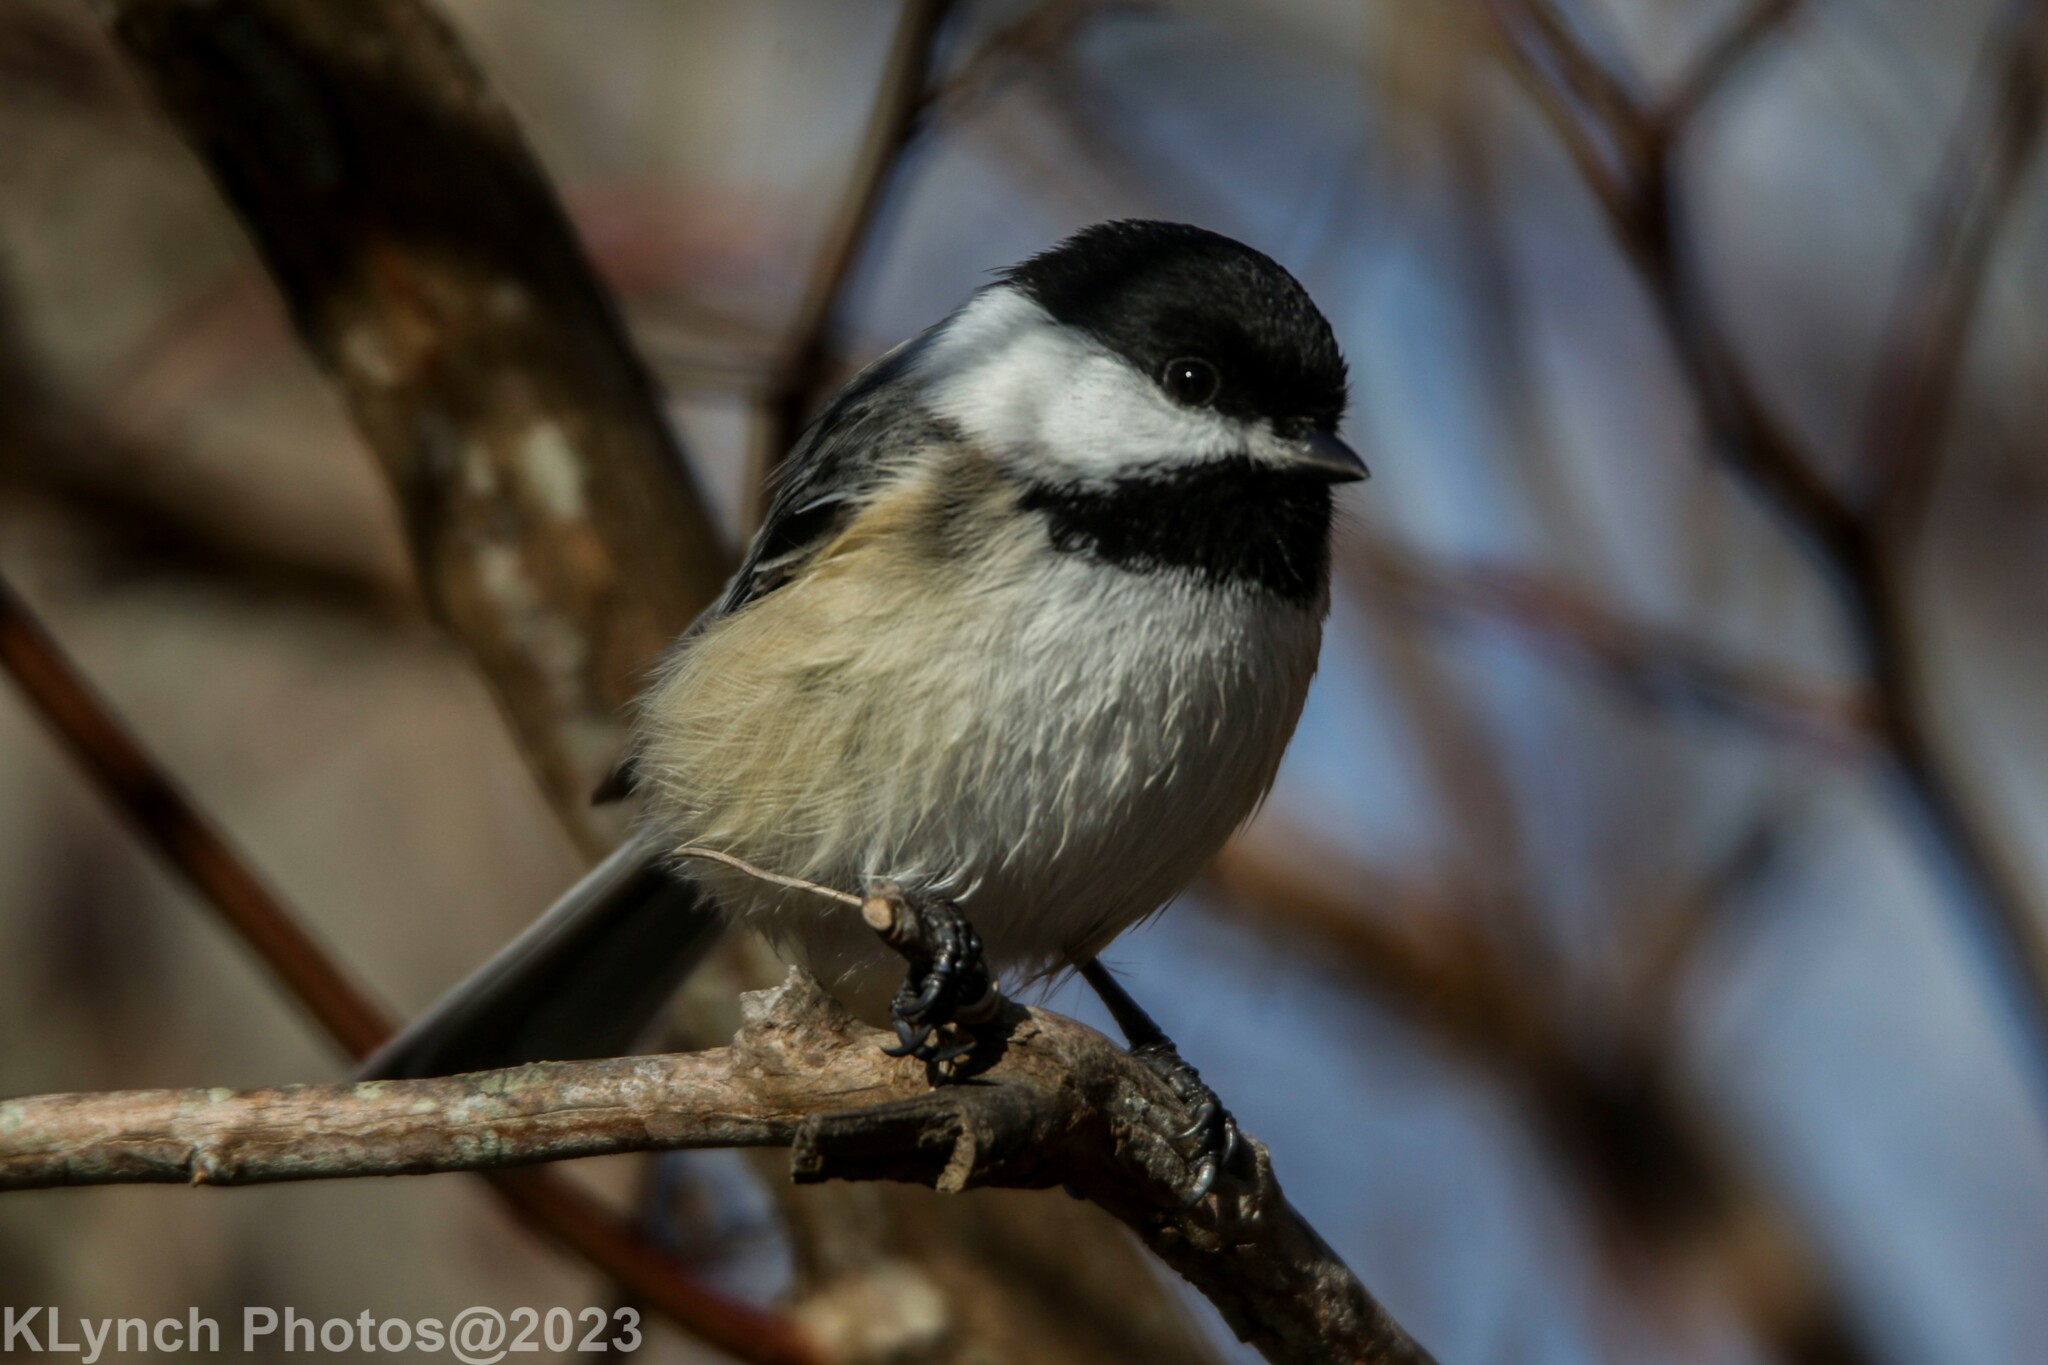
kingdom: Animalia
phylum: Chordata
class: Aves
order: Passeriformes
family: Paridae
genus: Poecile
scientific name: Poecile atricapillus
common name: Black-capped chickadee
